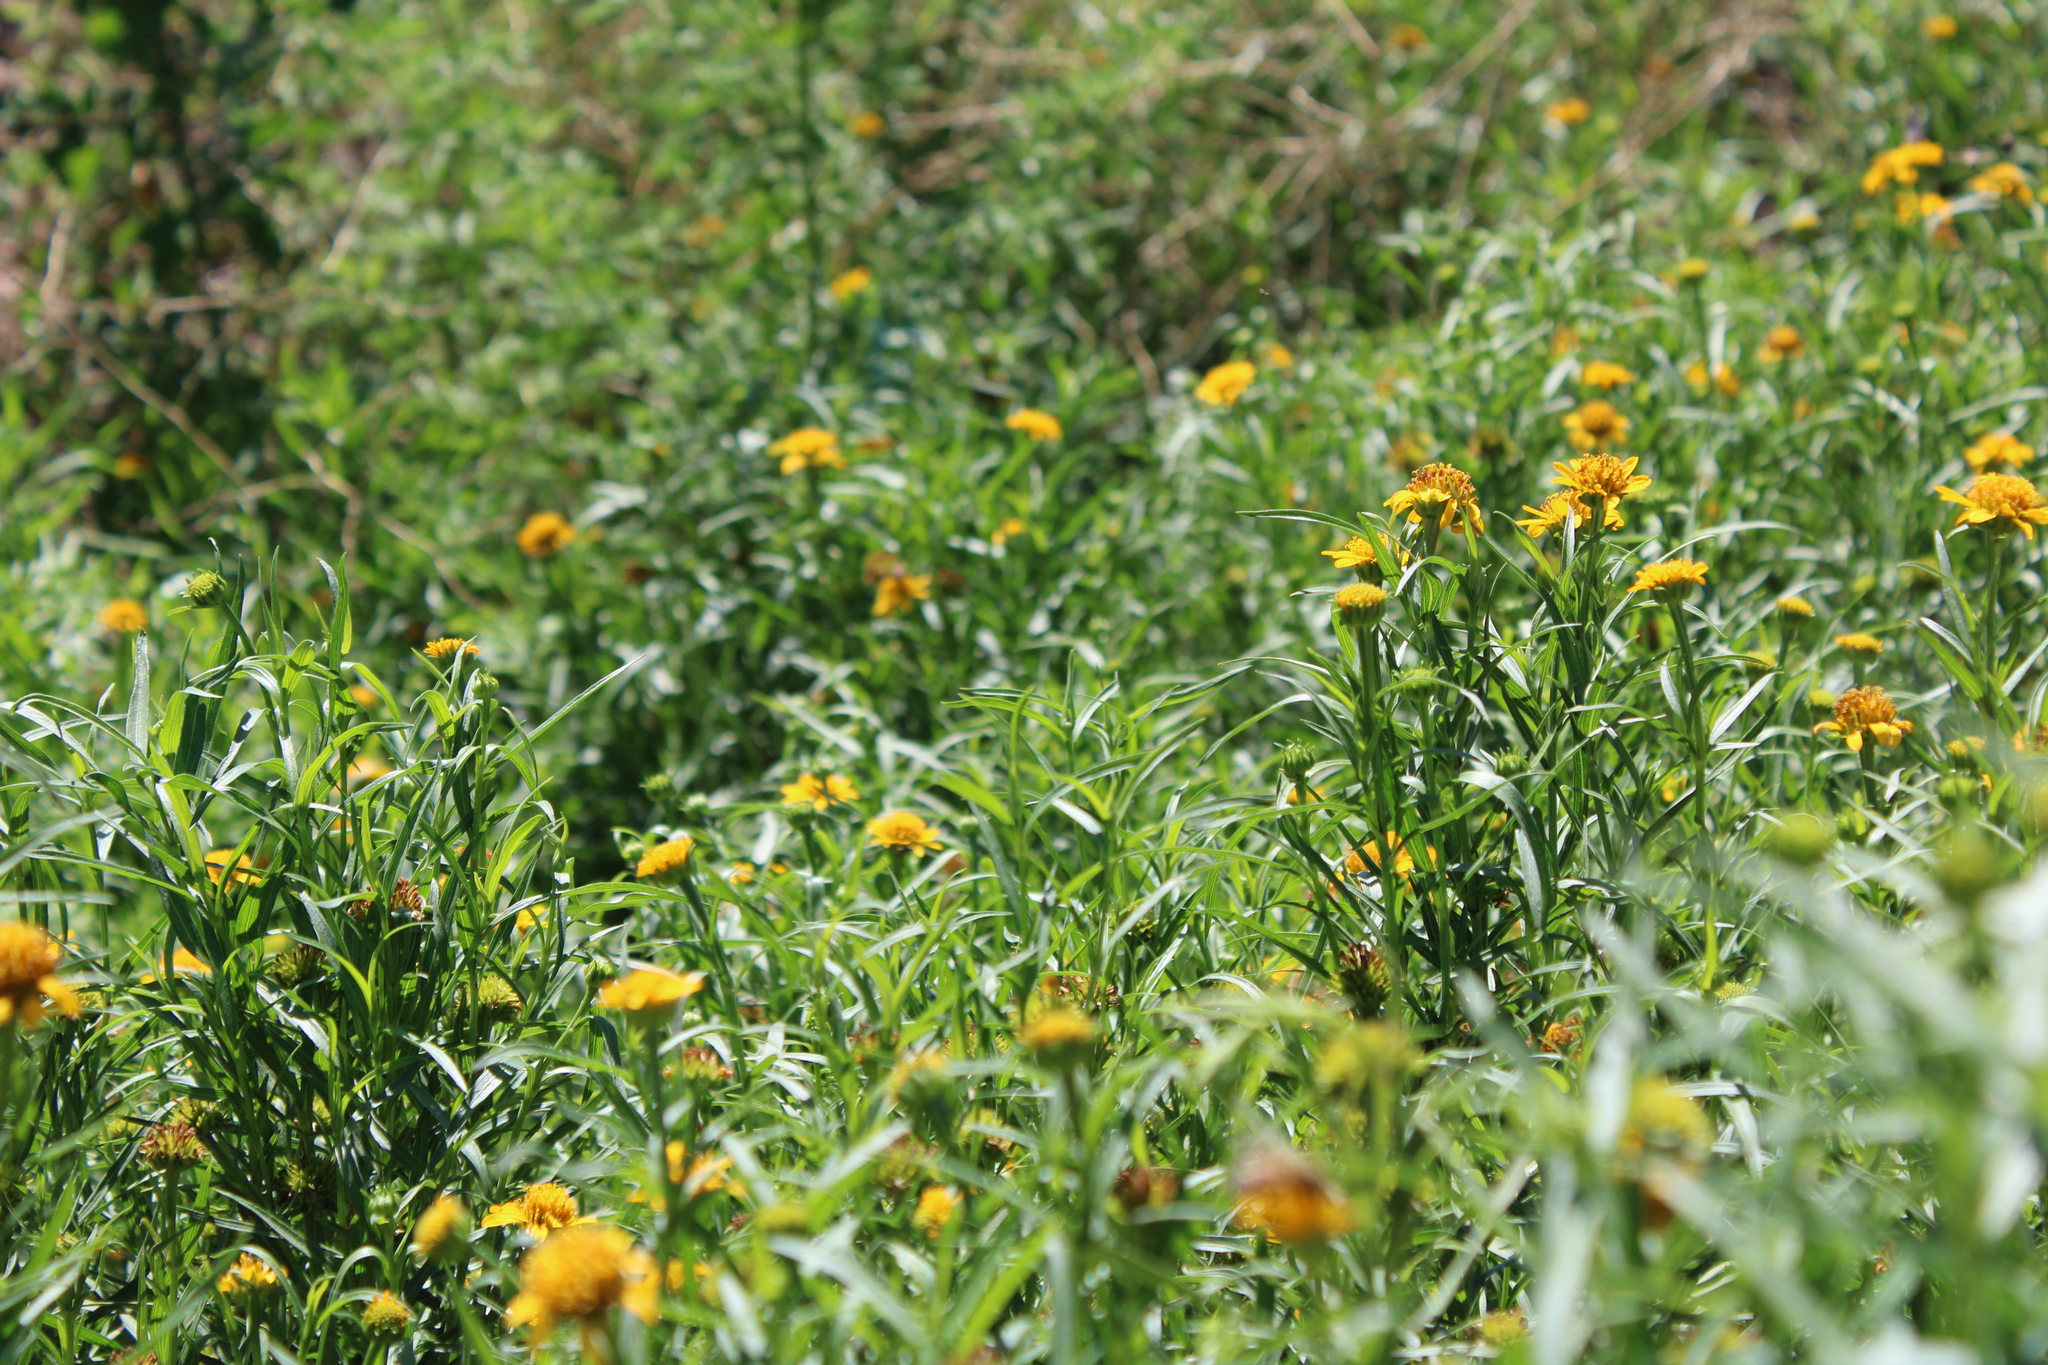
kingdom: Plantae
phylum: Tracheophyta
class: Magnoliopsida
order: Asterales
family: Asteraceae
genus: Pascalia
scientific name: Pascalia glauca
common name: Beach creeping oxeye
